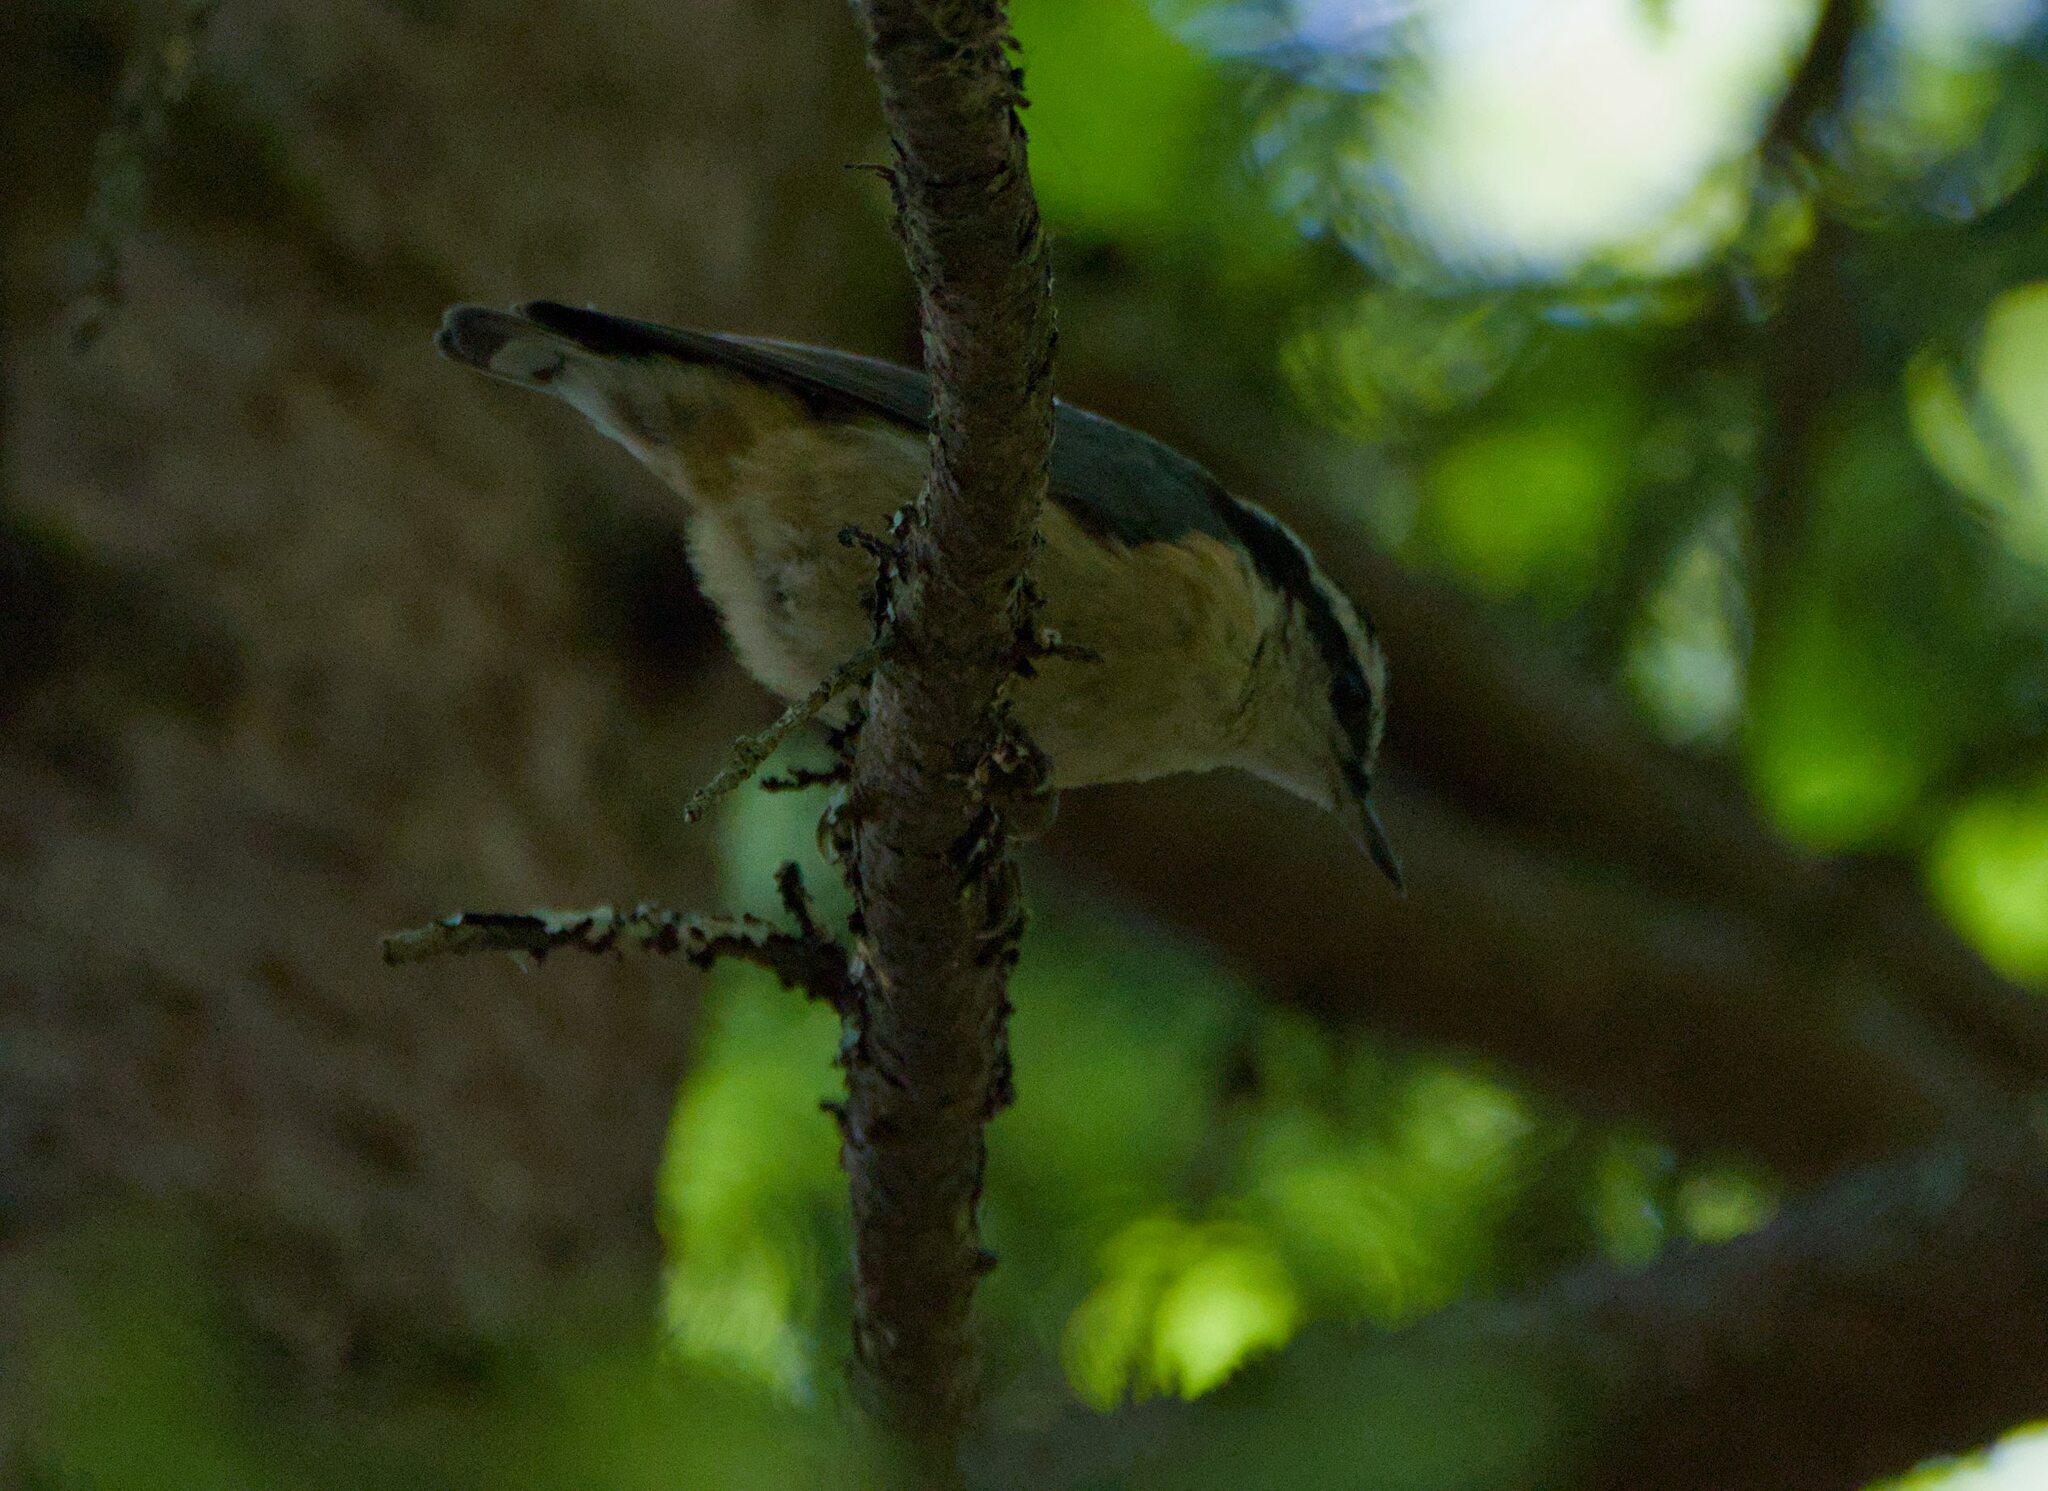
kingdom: Animalia
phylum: Chordata
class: Aves
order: Passeriformes
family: Sittidae
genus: Sitta
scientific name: Sitta canadensis
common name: Red-breasted nuthatch
